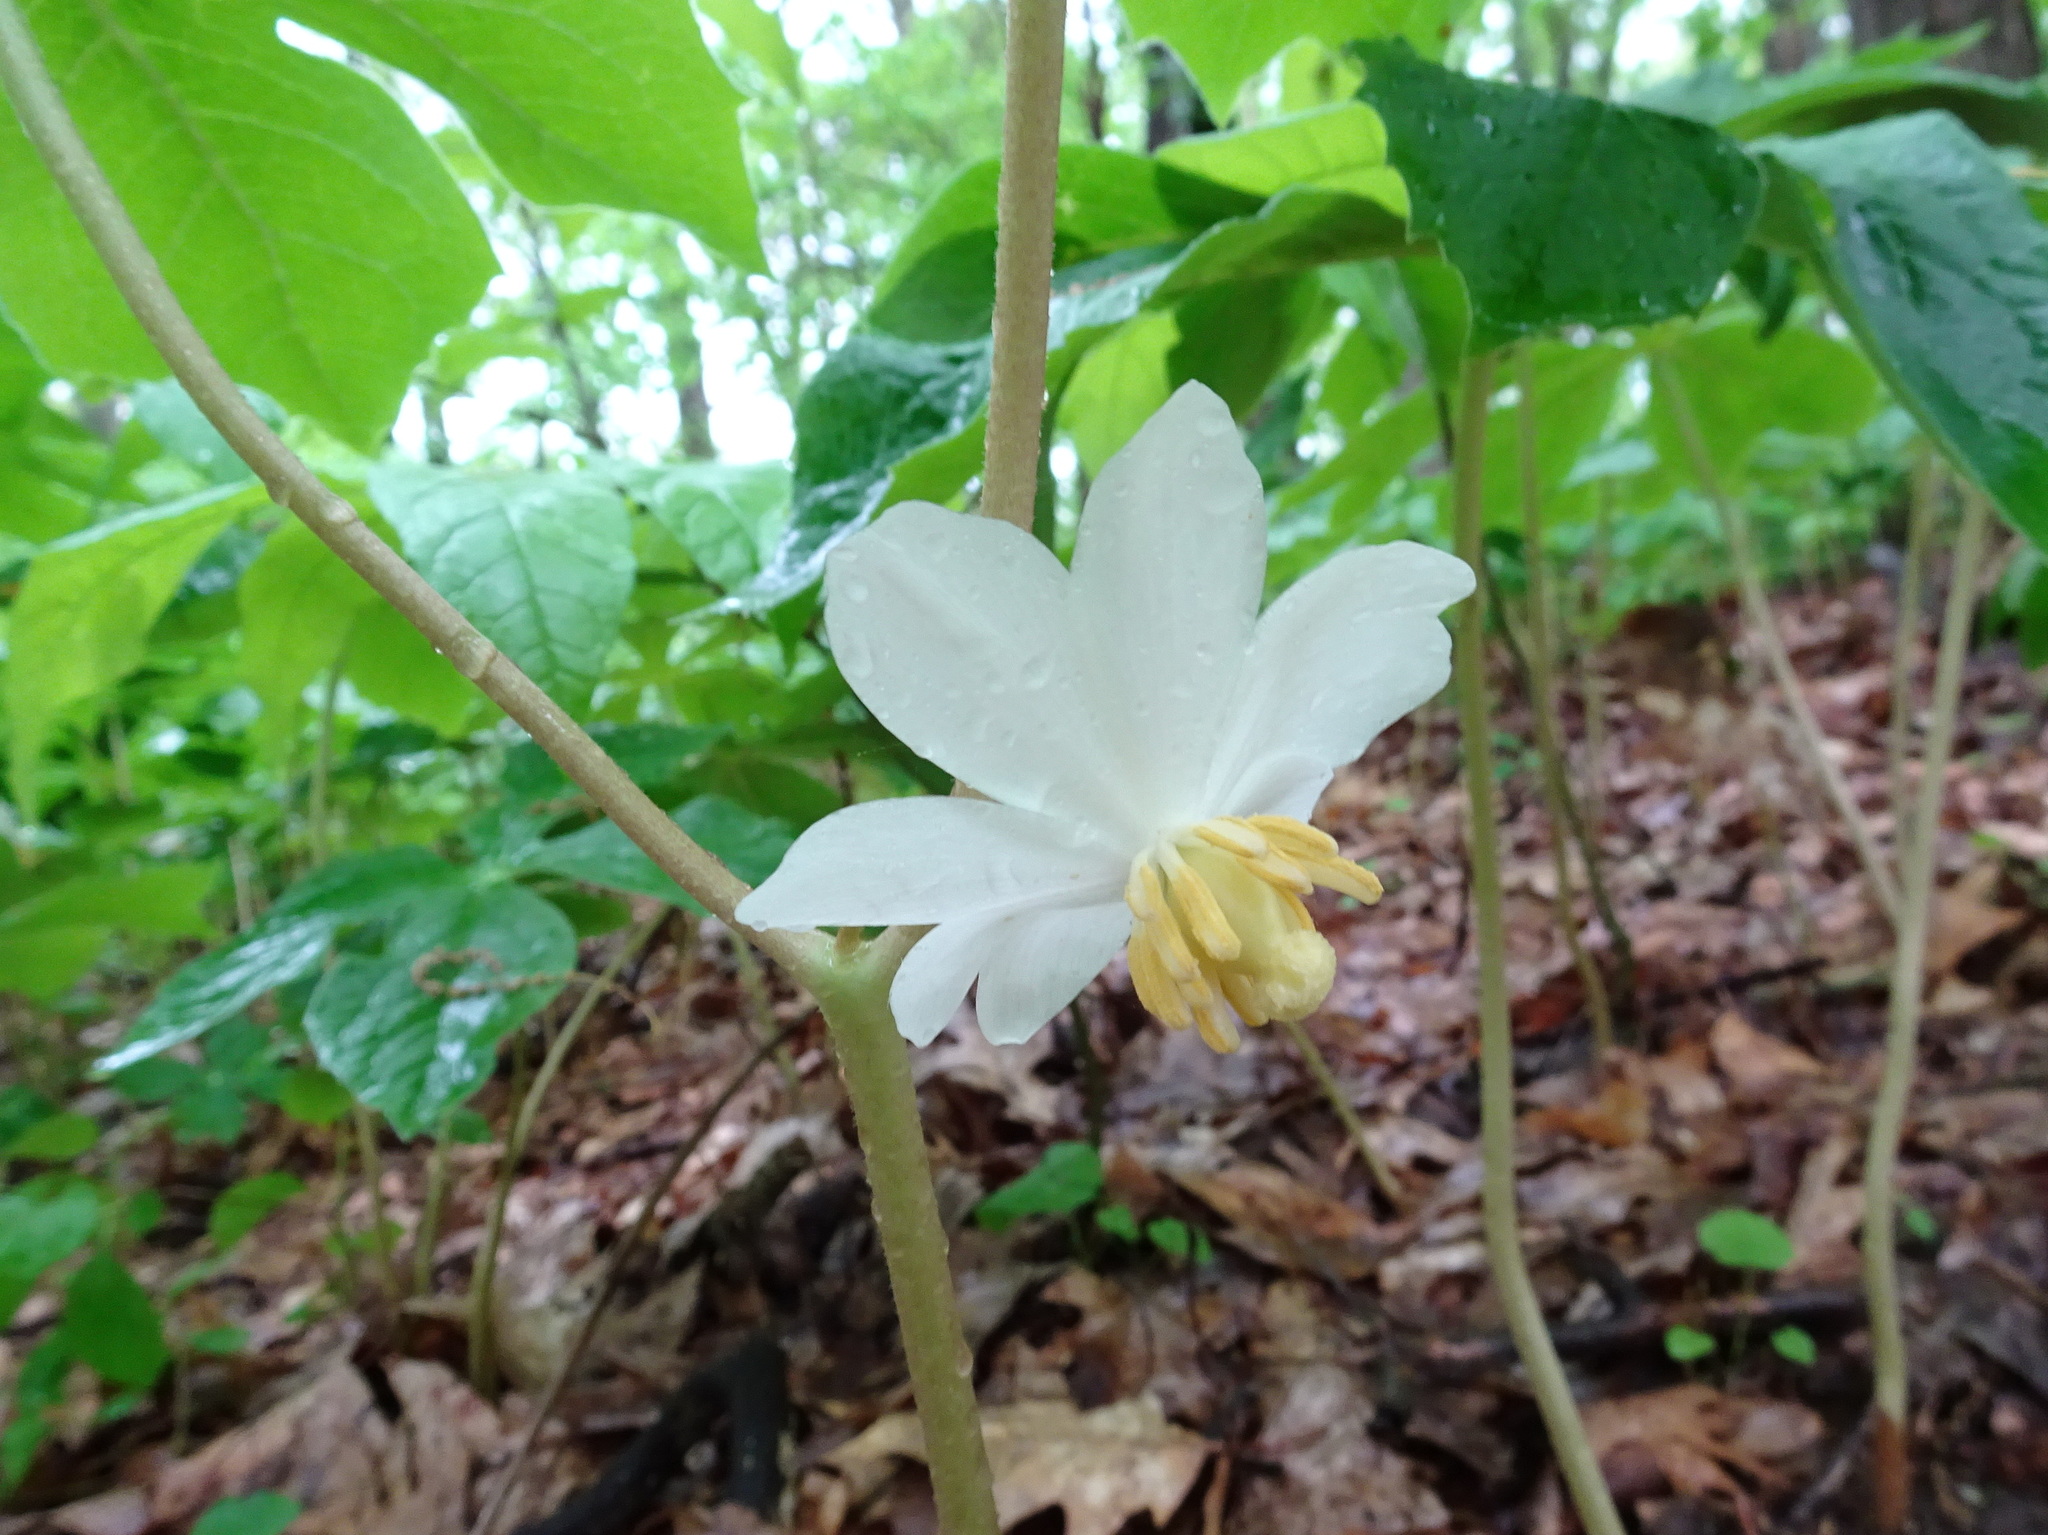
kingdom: Plantae
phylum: Tracheophyta
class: Magnoliopsida
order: Ranunculales
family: Berberidaceae
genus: Podophyllum
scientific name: Podophyllum peltatum
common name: Wild mandrake
